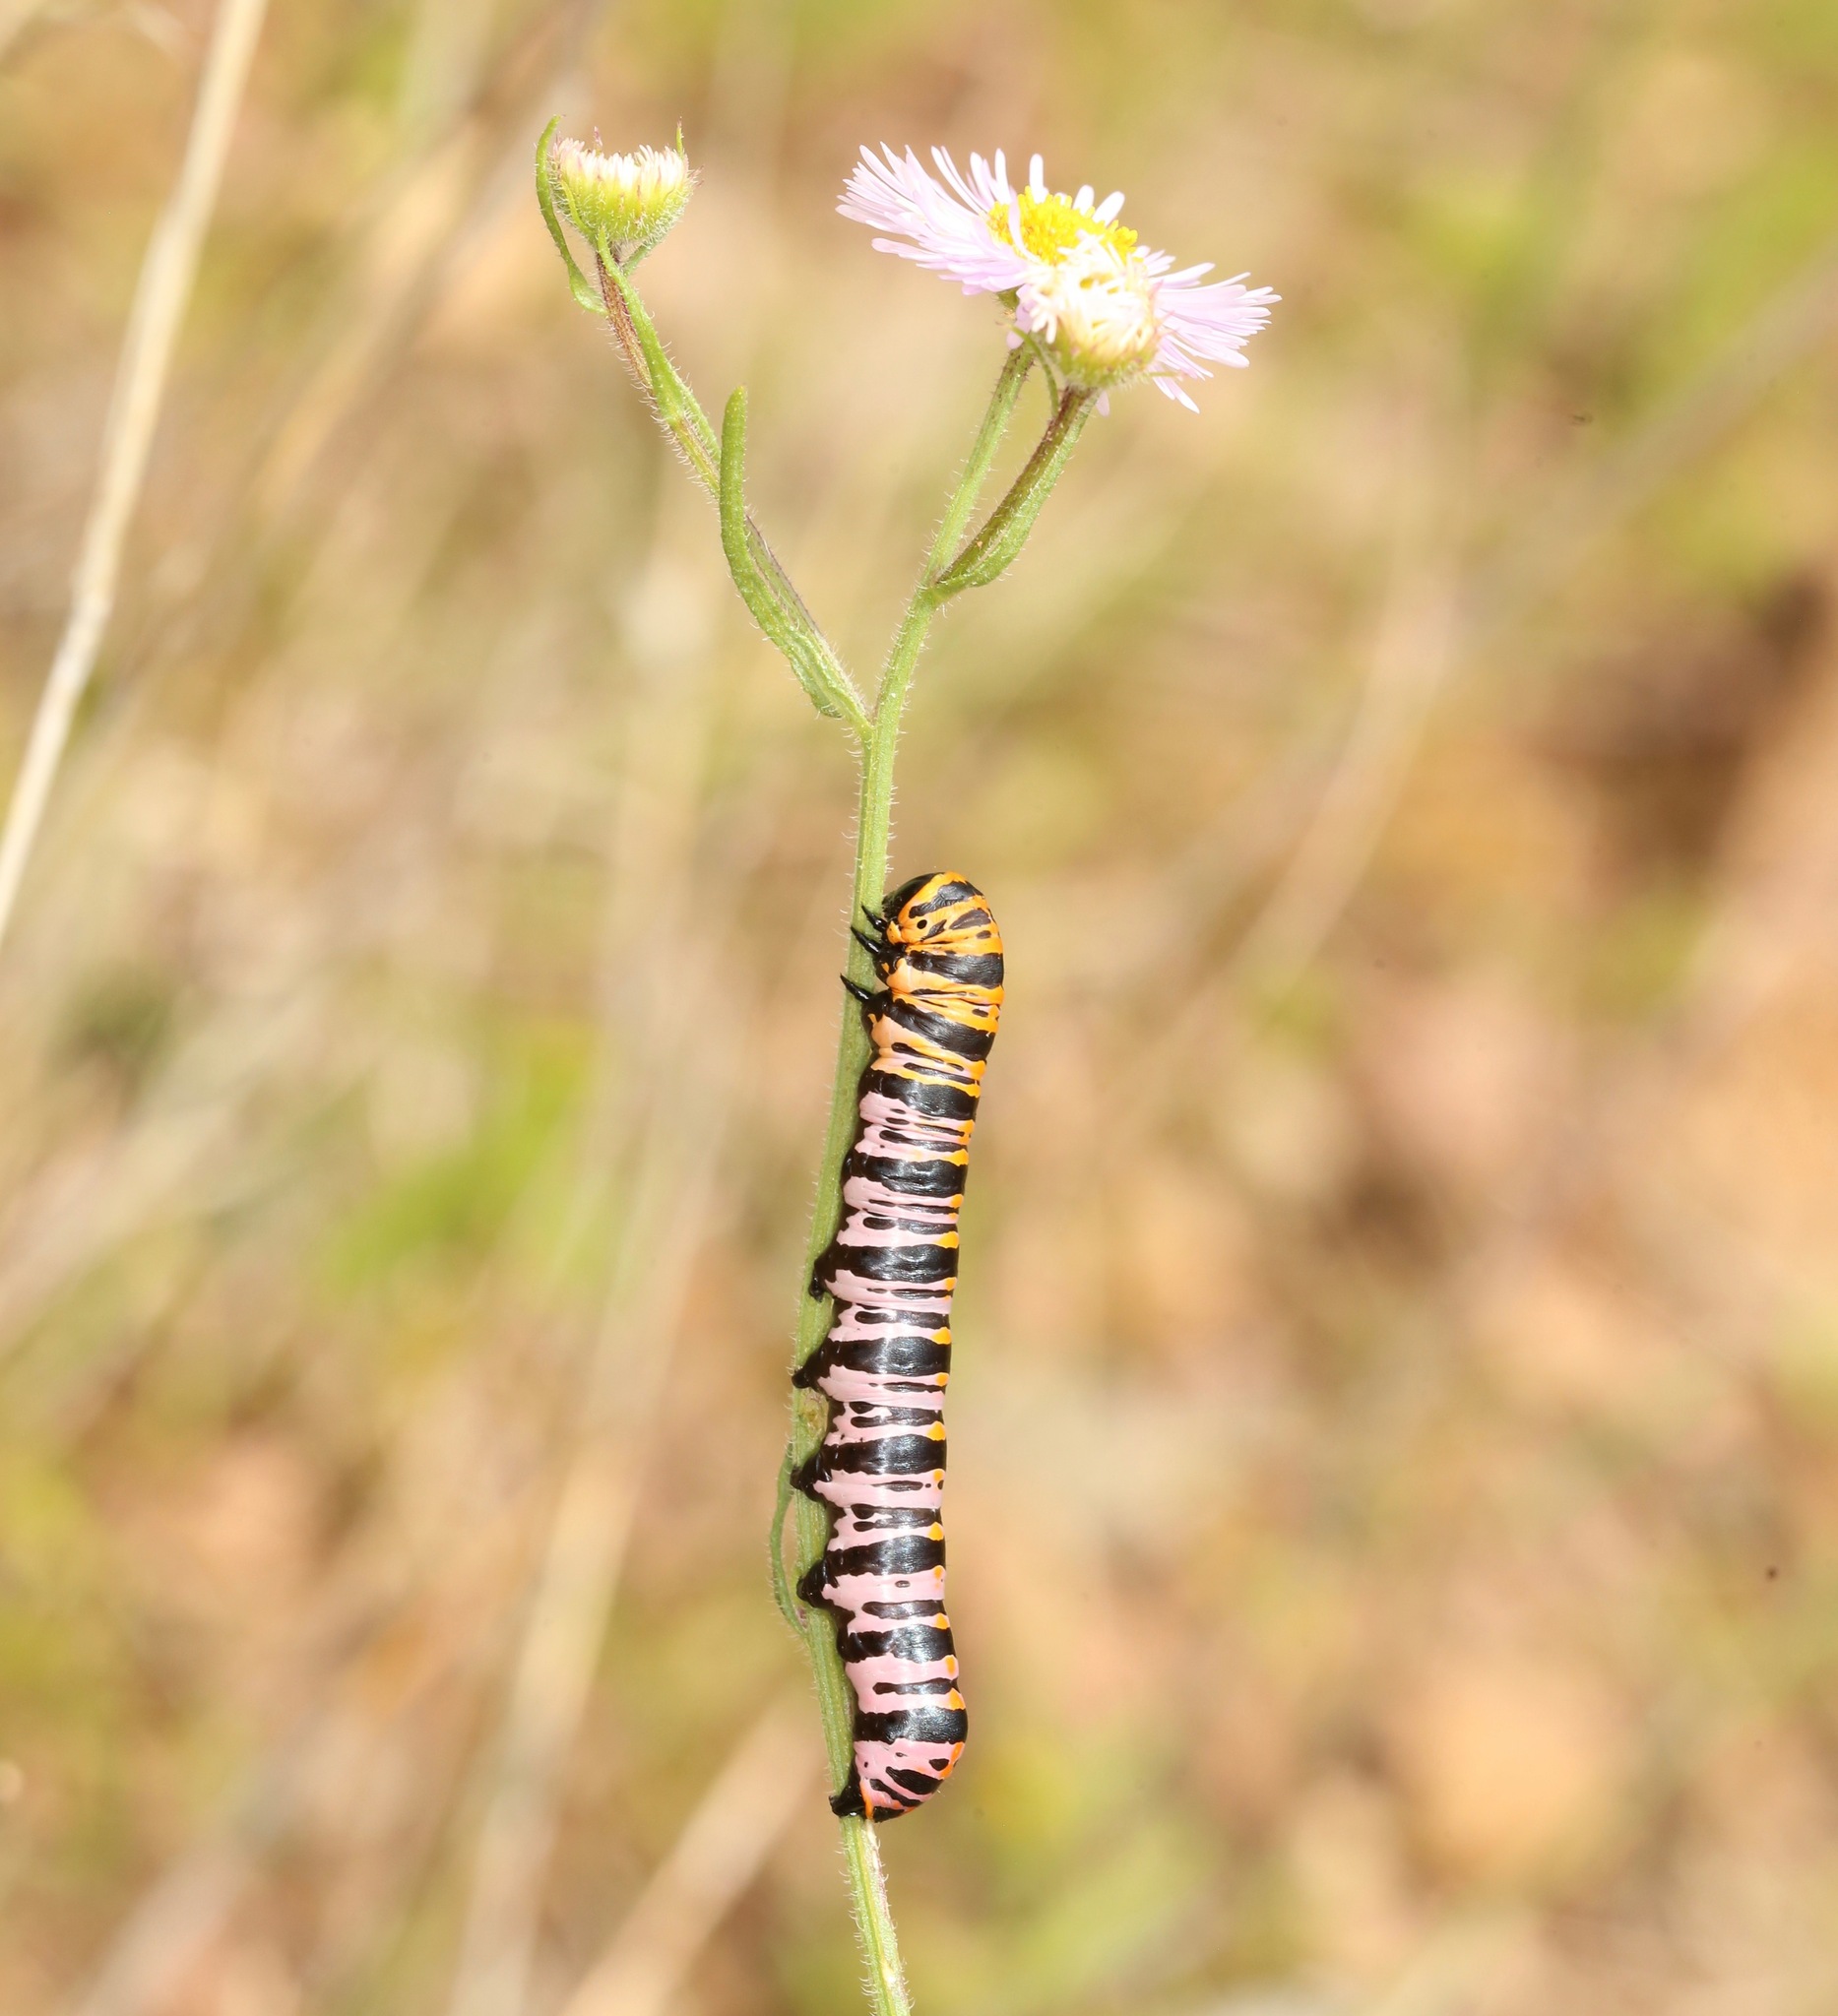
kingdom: Animalia
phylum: Arthropoda
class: Insecta
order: Lepidoptera
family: Noctuidae
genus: Cucullia
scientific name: Cucullia lilacina
